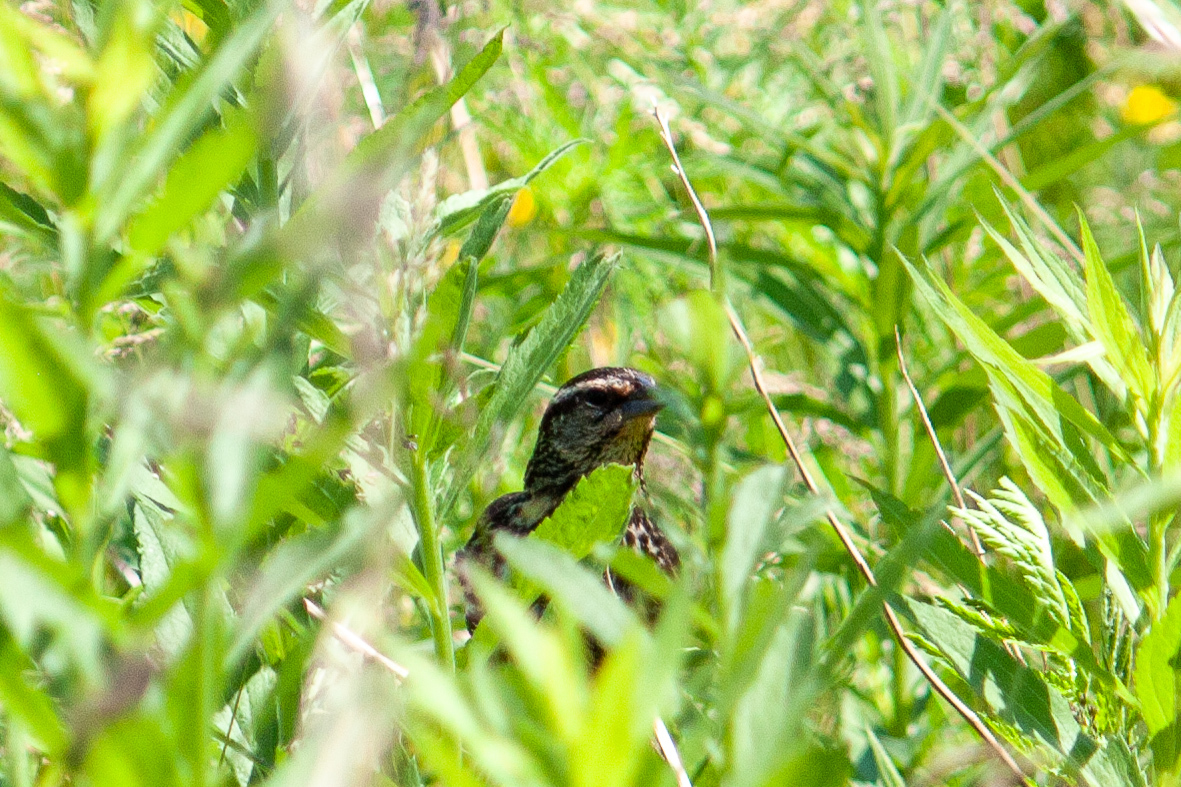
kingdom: Animalia
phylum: Chordata
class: Aves
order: Passeriformes
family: Icteridae
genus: Agelaius
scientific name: Agelaius phoeniceus
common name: Red-winged blackbird
